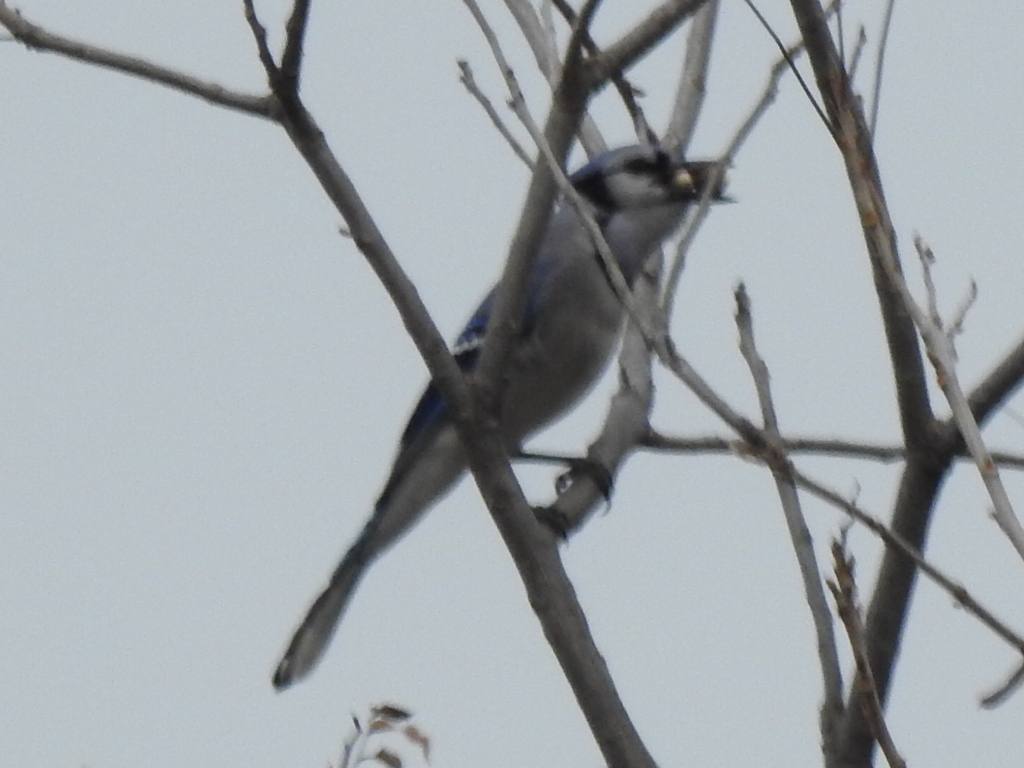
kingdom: Animalia
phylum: Chordata
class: Aves
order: Passeriformes
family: Corvidae
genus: Cyanocitta
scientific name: Cyanocitta cristata
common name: Blue jay
